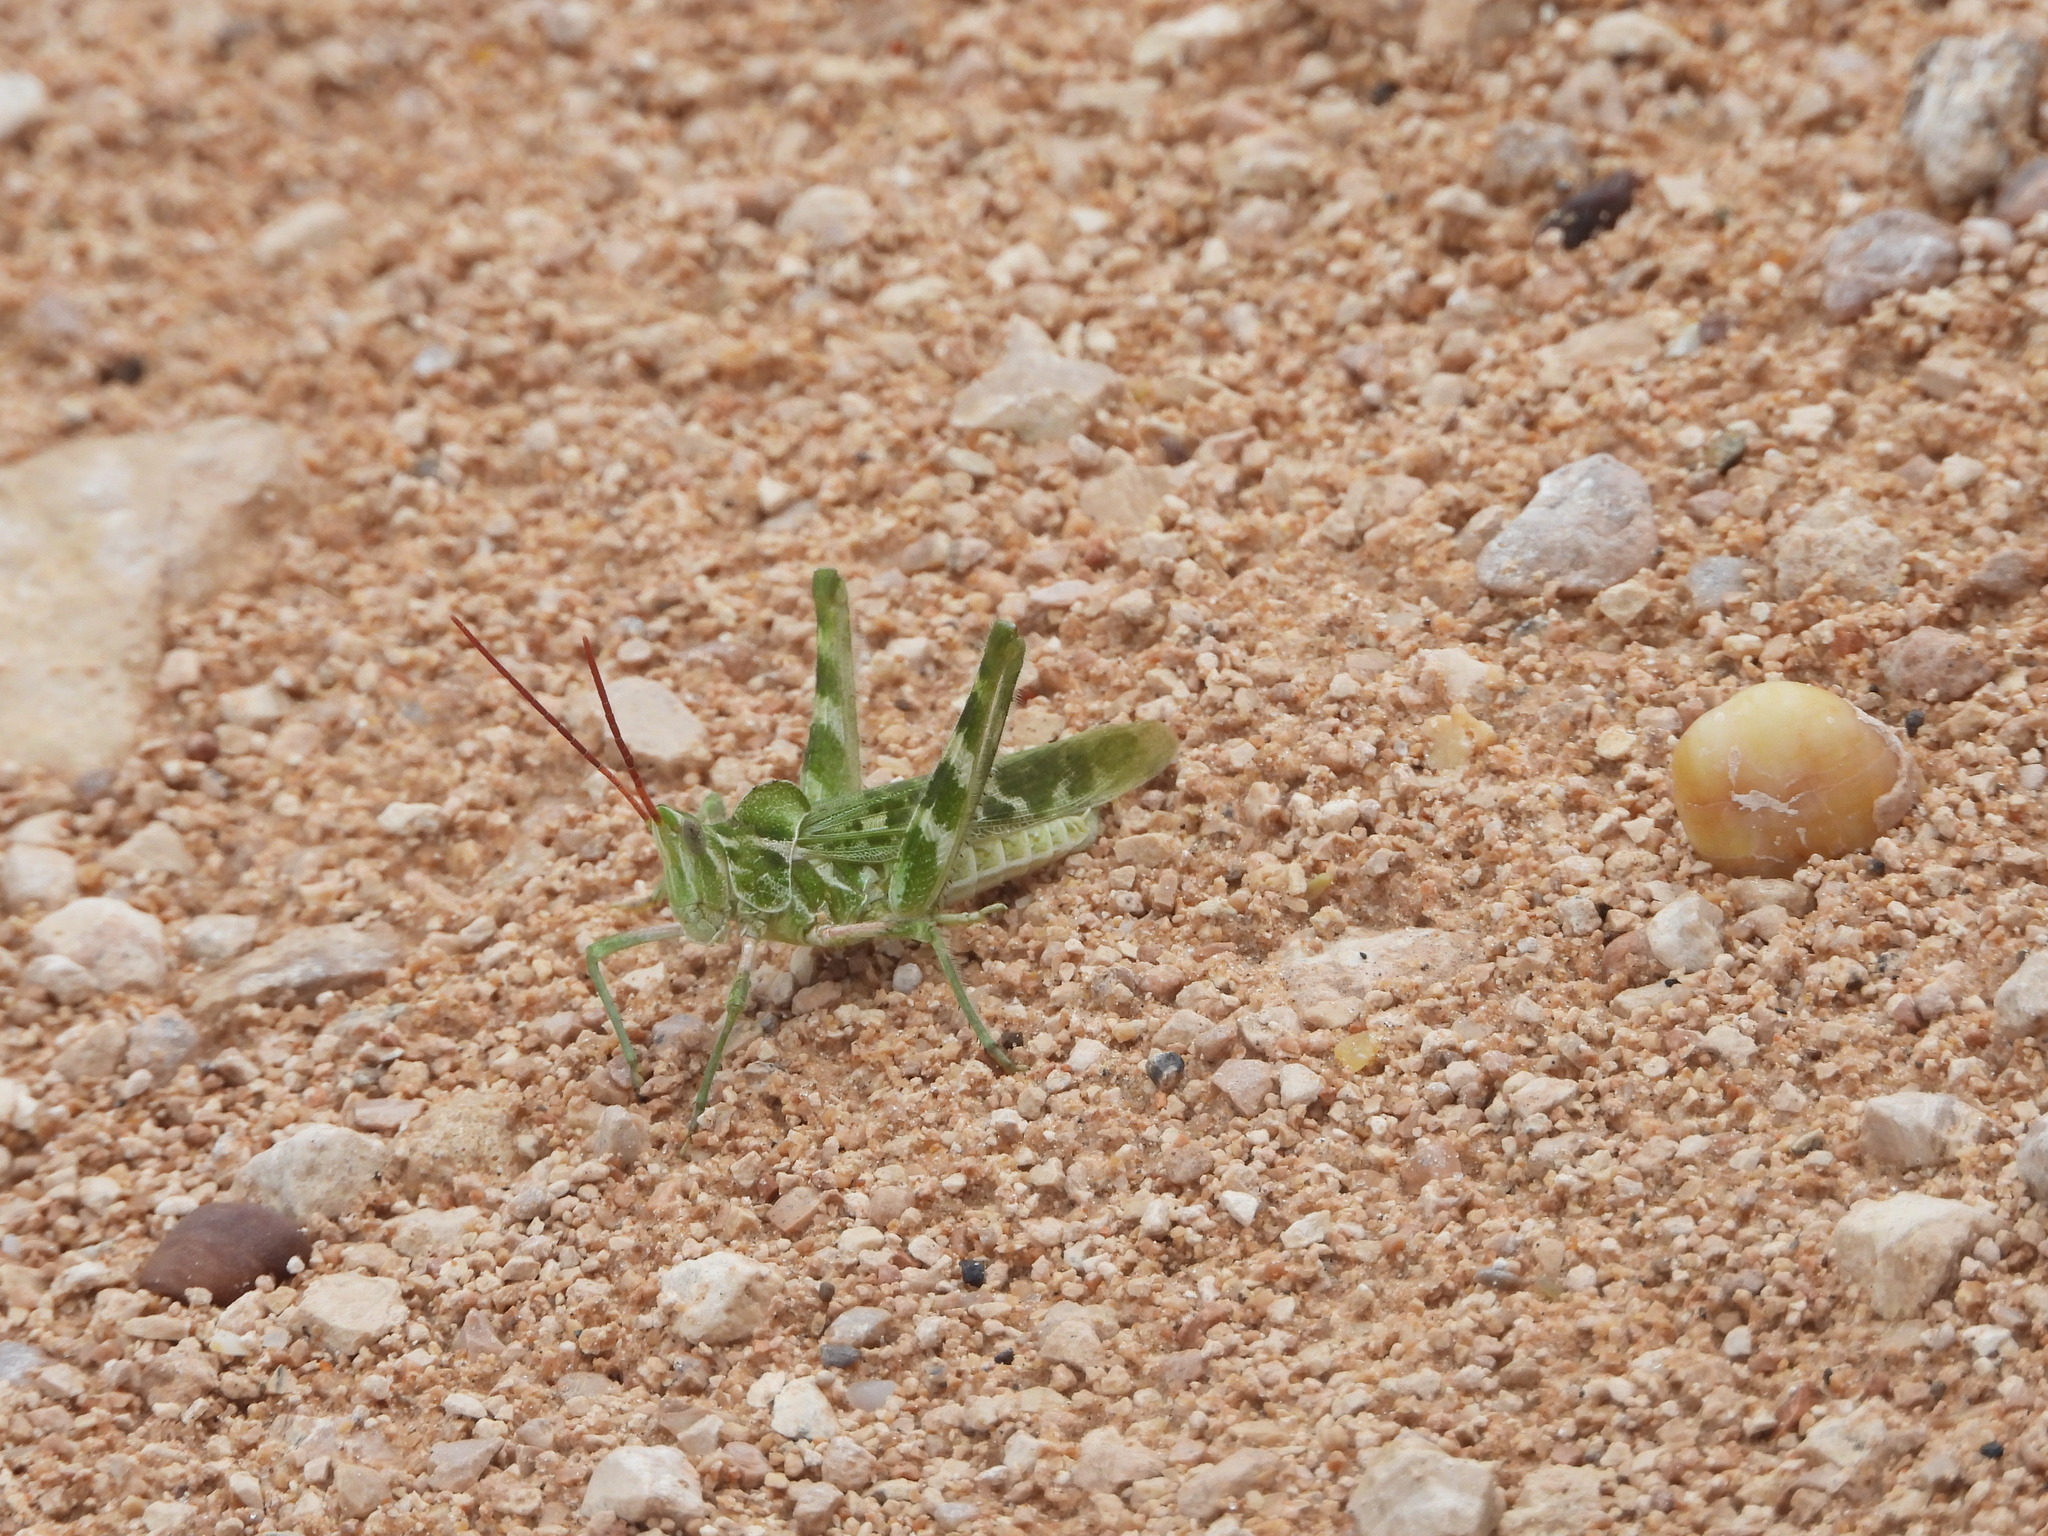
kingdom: Animalia
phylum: Arthropoda
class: Insecta
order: Orthoptera
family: Acrididae
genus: Acrolophitus
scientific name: Acrolophitus hirtipes
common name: Green fool grasshopper
